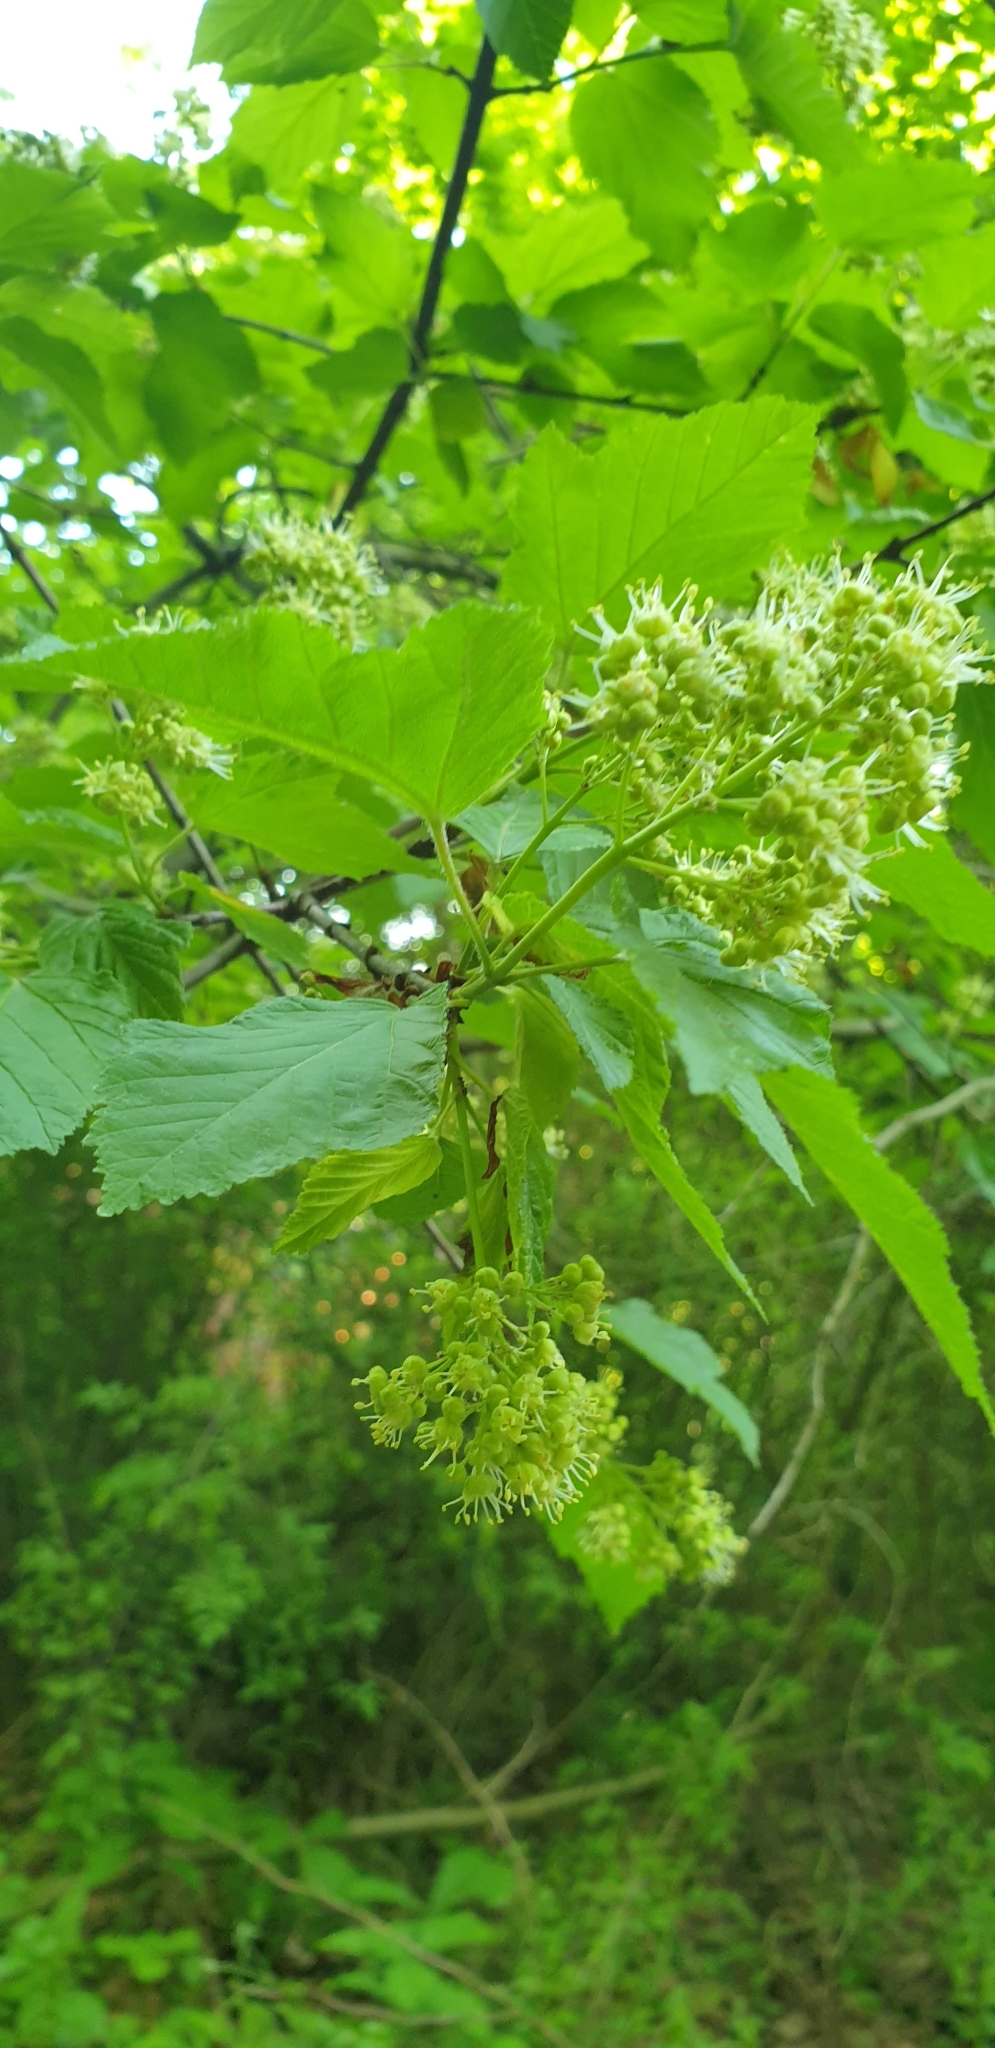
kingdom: Plantae
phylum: Tracheophyta
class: Magnoliopsida
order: Sapindales
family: Sapindaceae
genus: Acer
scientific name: Acer tataricum
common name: Tartar maple
